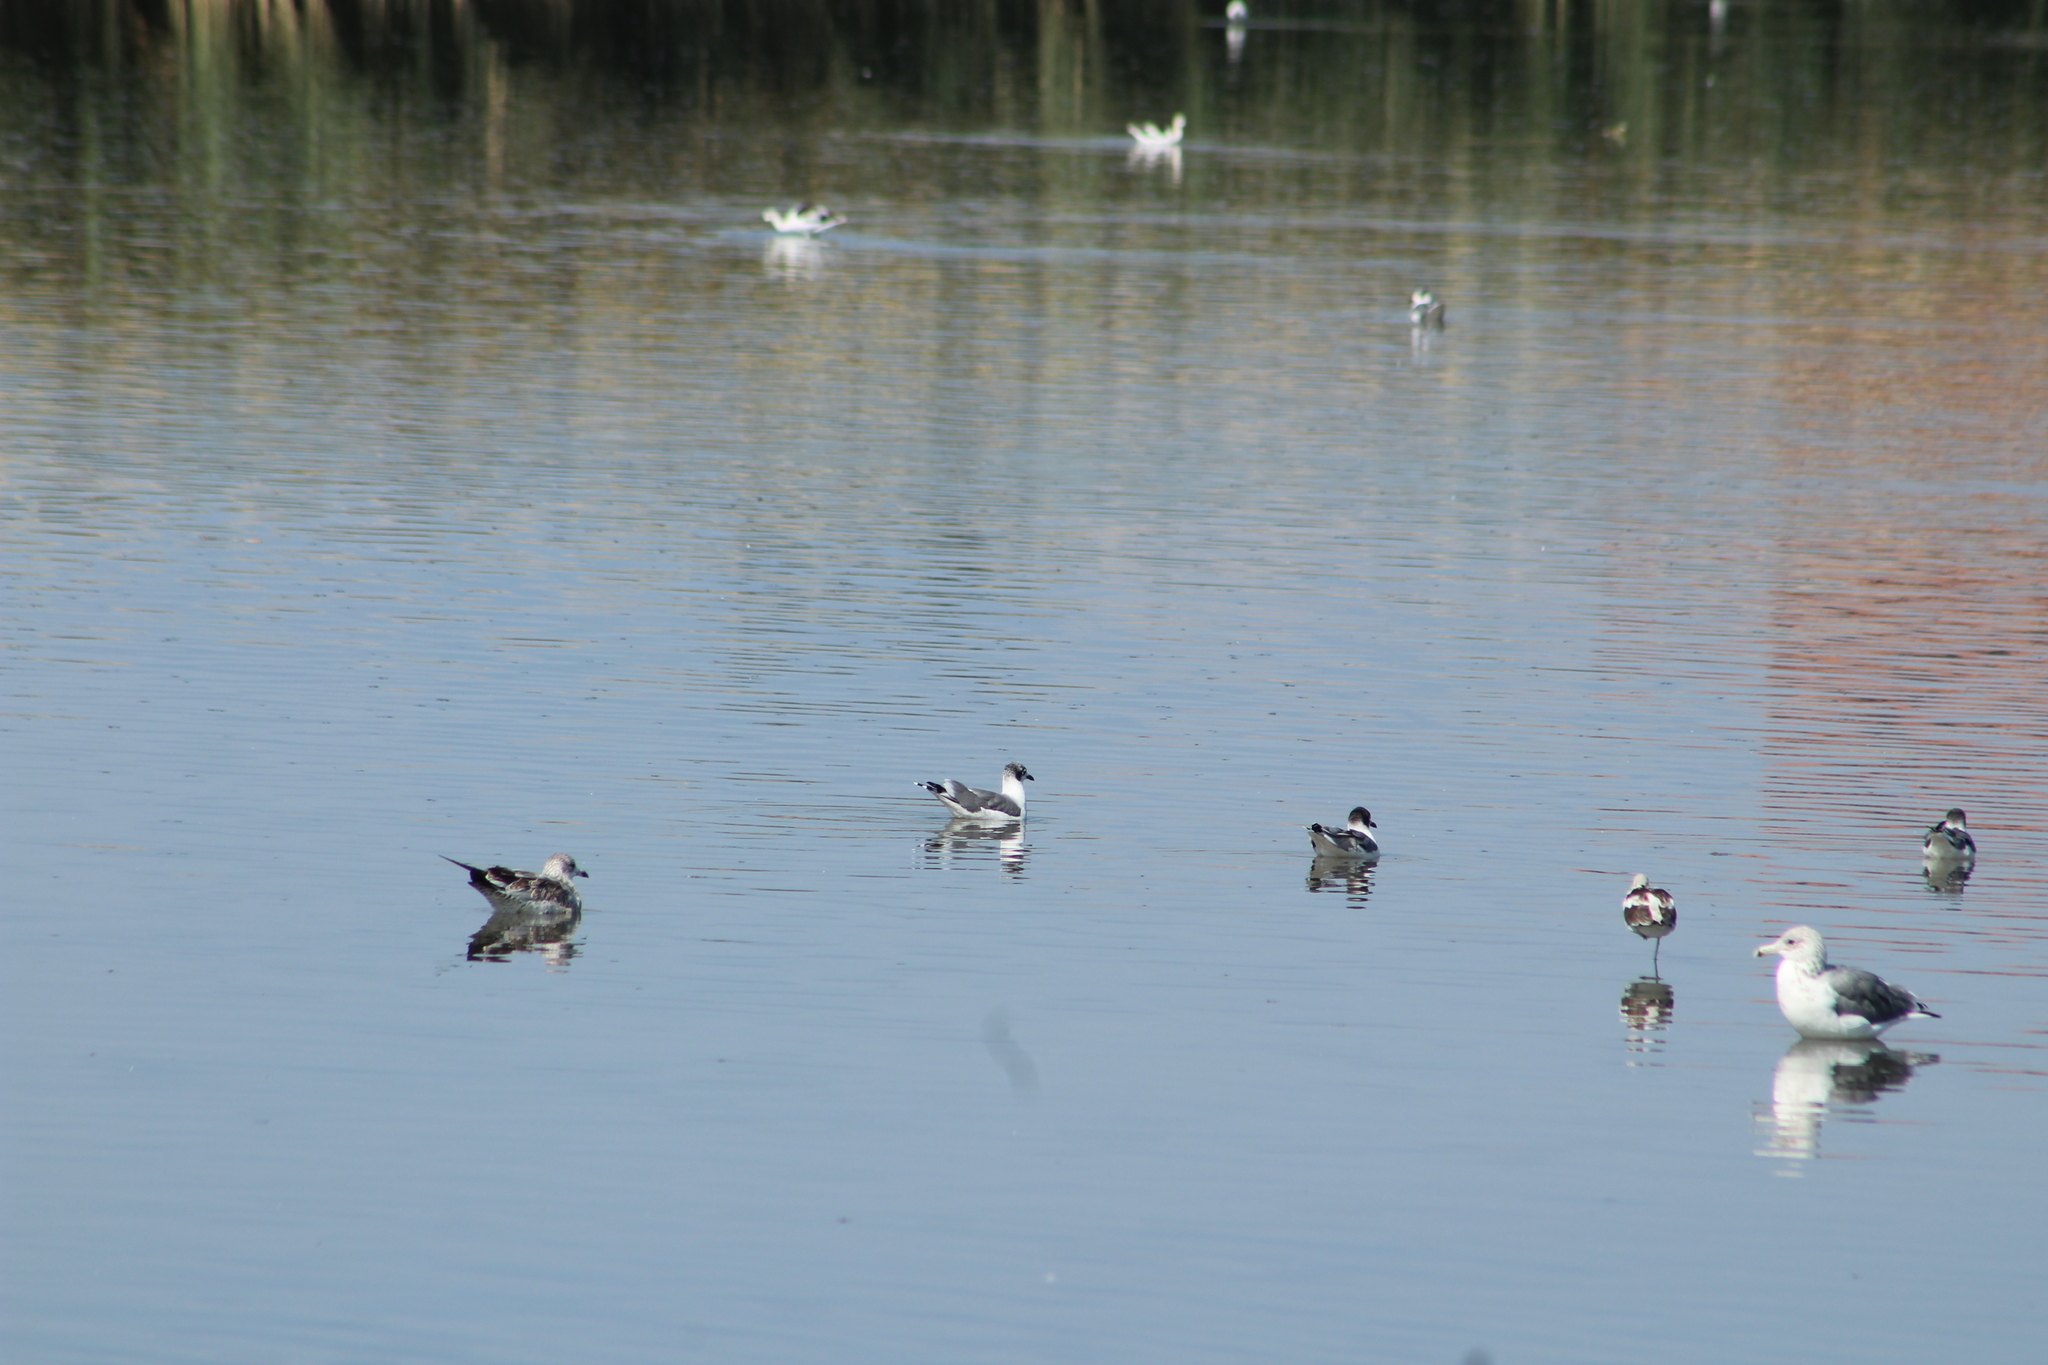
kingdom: Animalia
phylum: Chordata
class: Aves
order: Charadriiformes
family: Laridae
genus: Leucophaeus
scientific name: Leucophaeus pipixcan
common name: Franklin's gull
